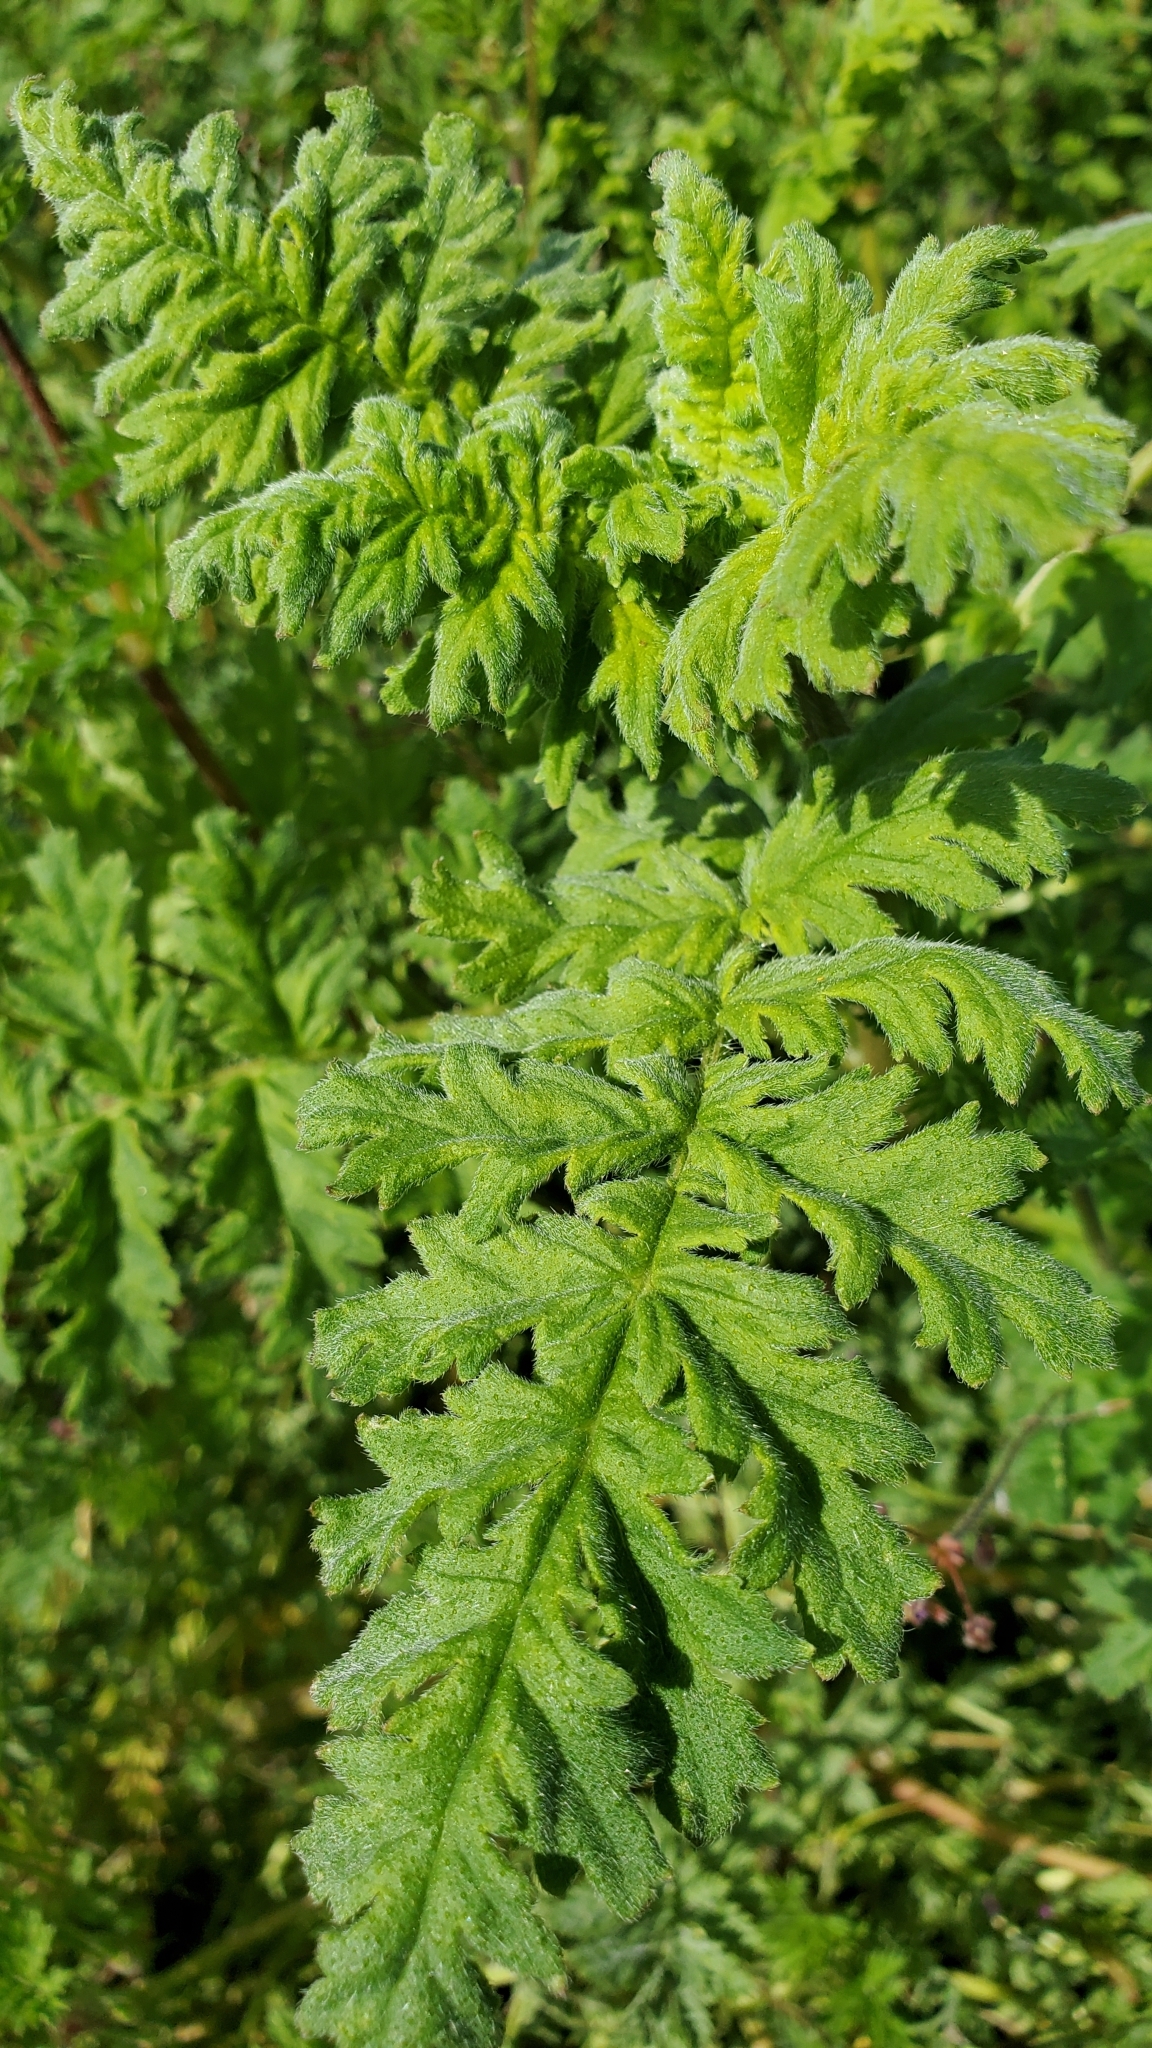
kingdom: Plantae
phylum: Tracheophyta
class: Magnoliopsida
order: Boraginales
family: Hydrophyllaceae
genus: Phacelia
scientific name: Phacelia ramosissima
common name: Branching phacelia
